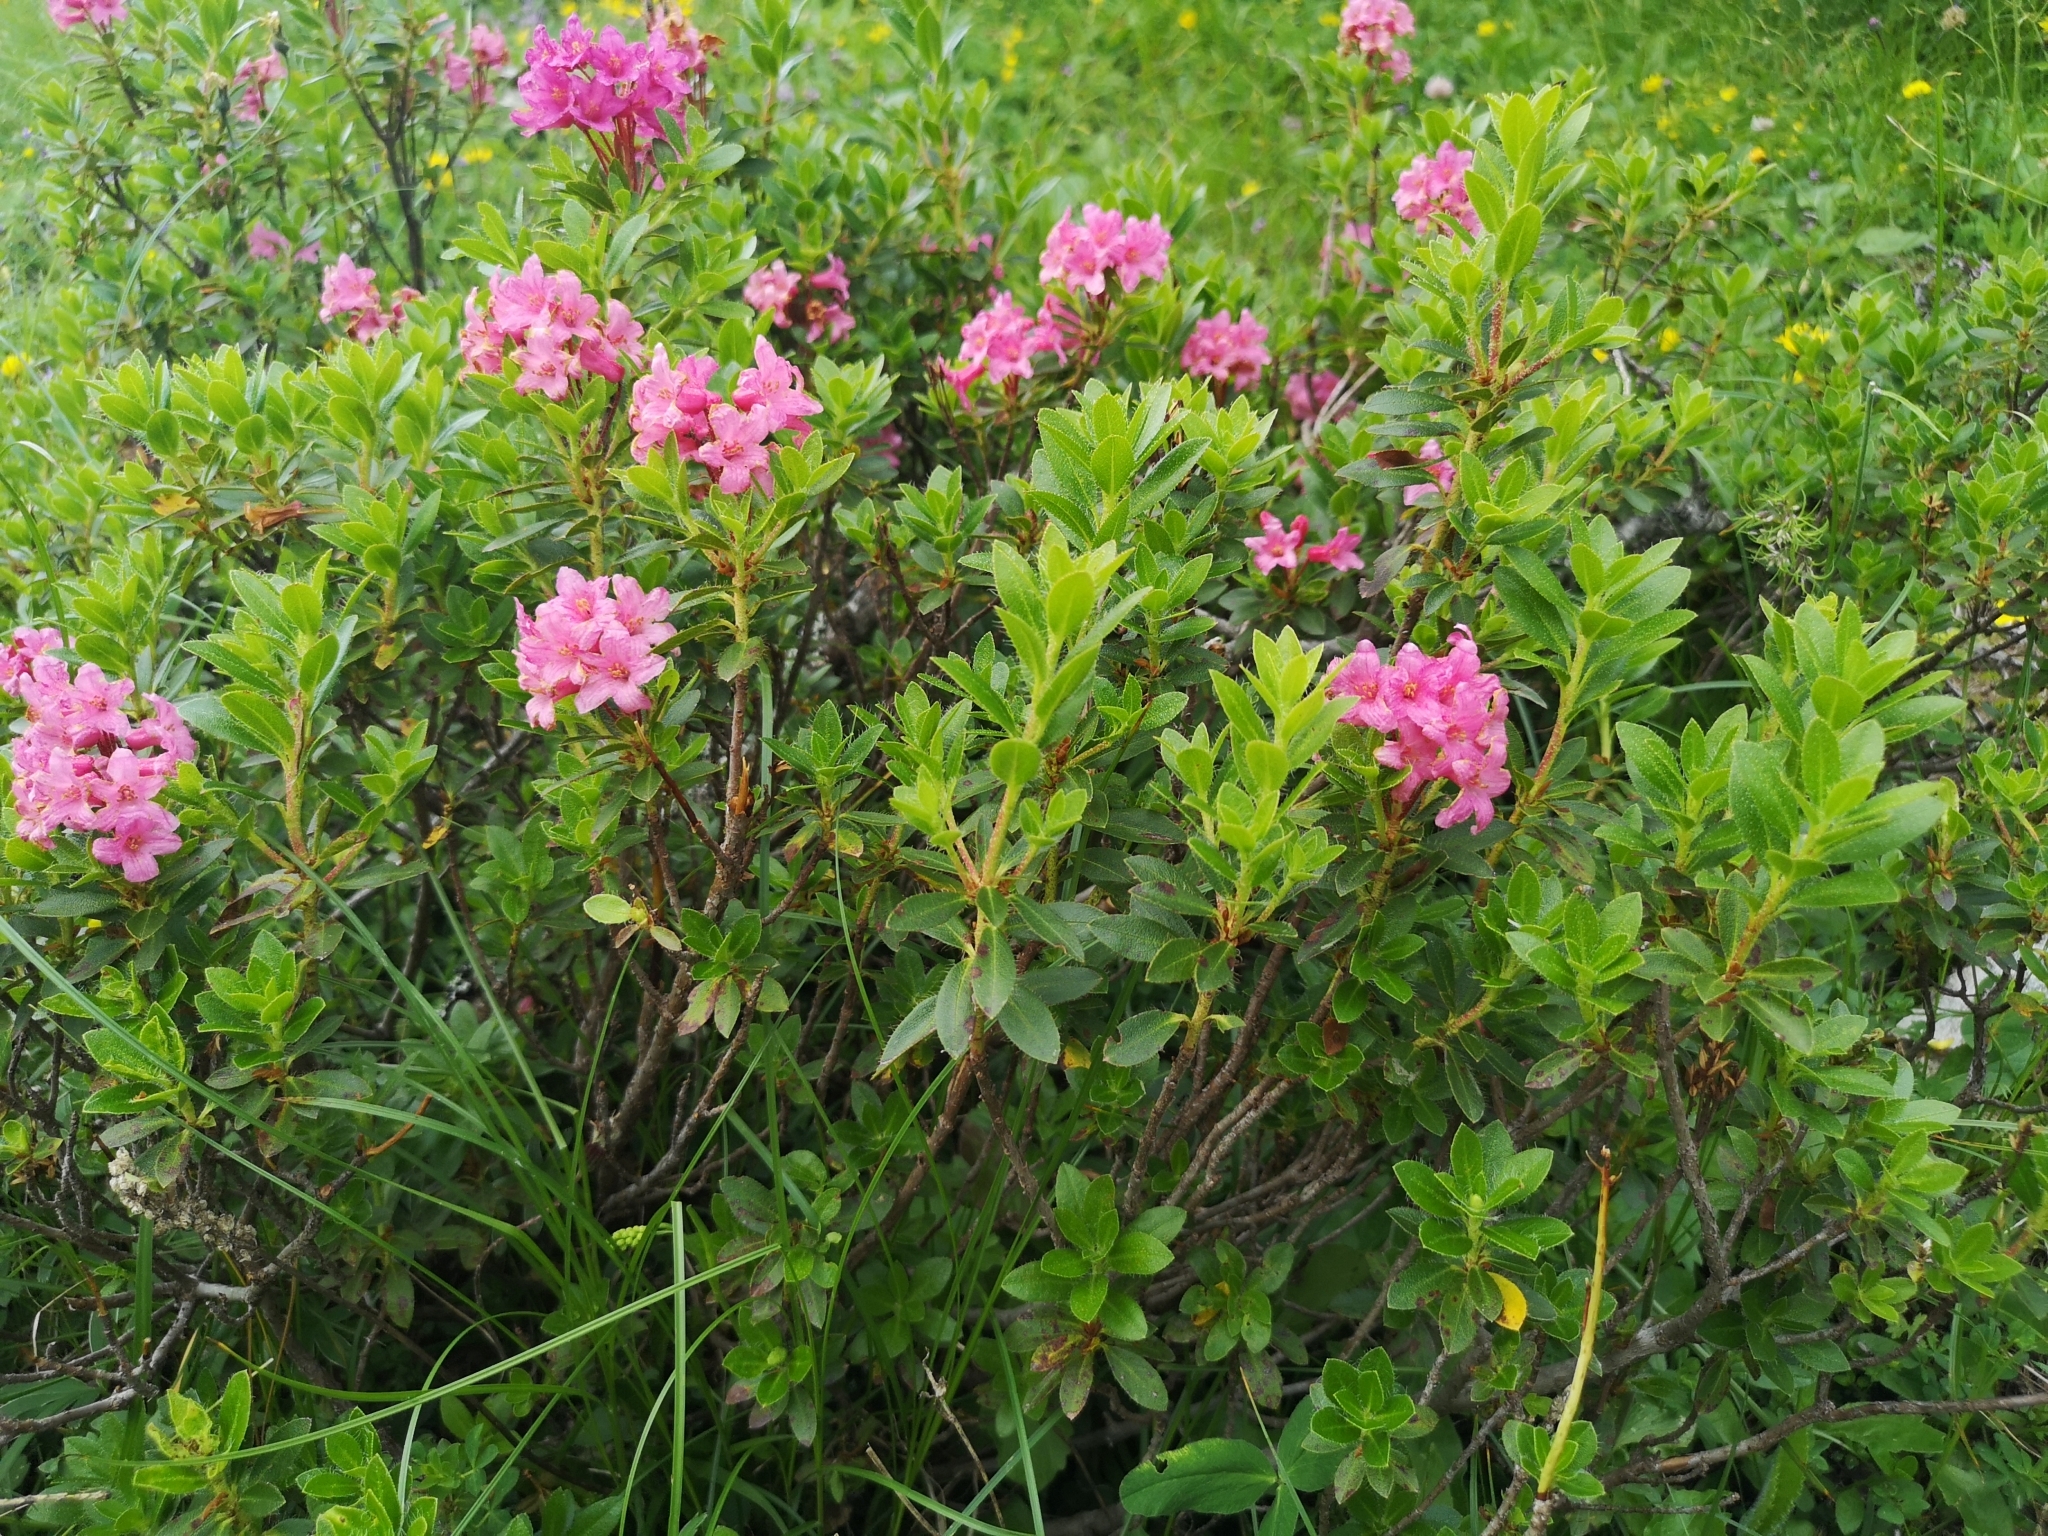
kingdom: Plantae
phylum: Tracheophyta
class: Magnoliopsida
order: Ericales
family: Ericaceae
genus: Rhododendron
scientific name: Rhododendron hirsutum
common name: Hairy alpenrose
